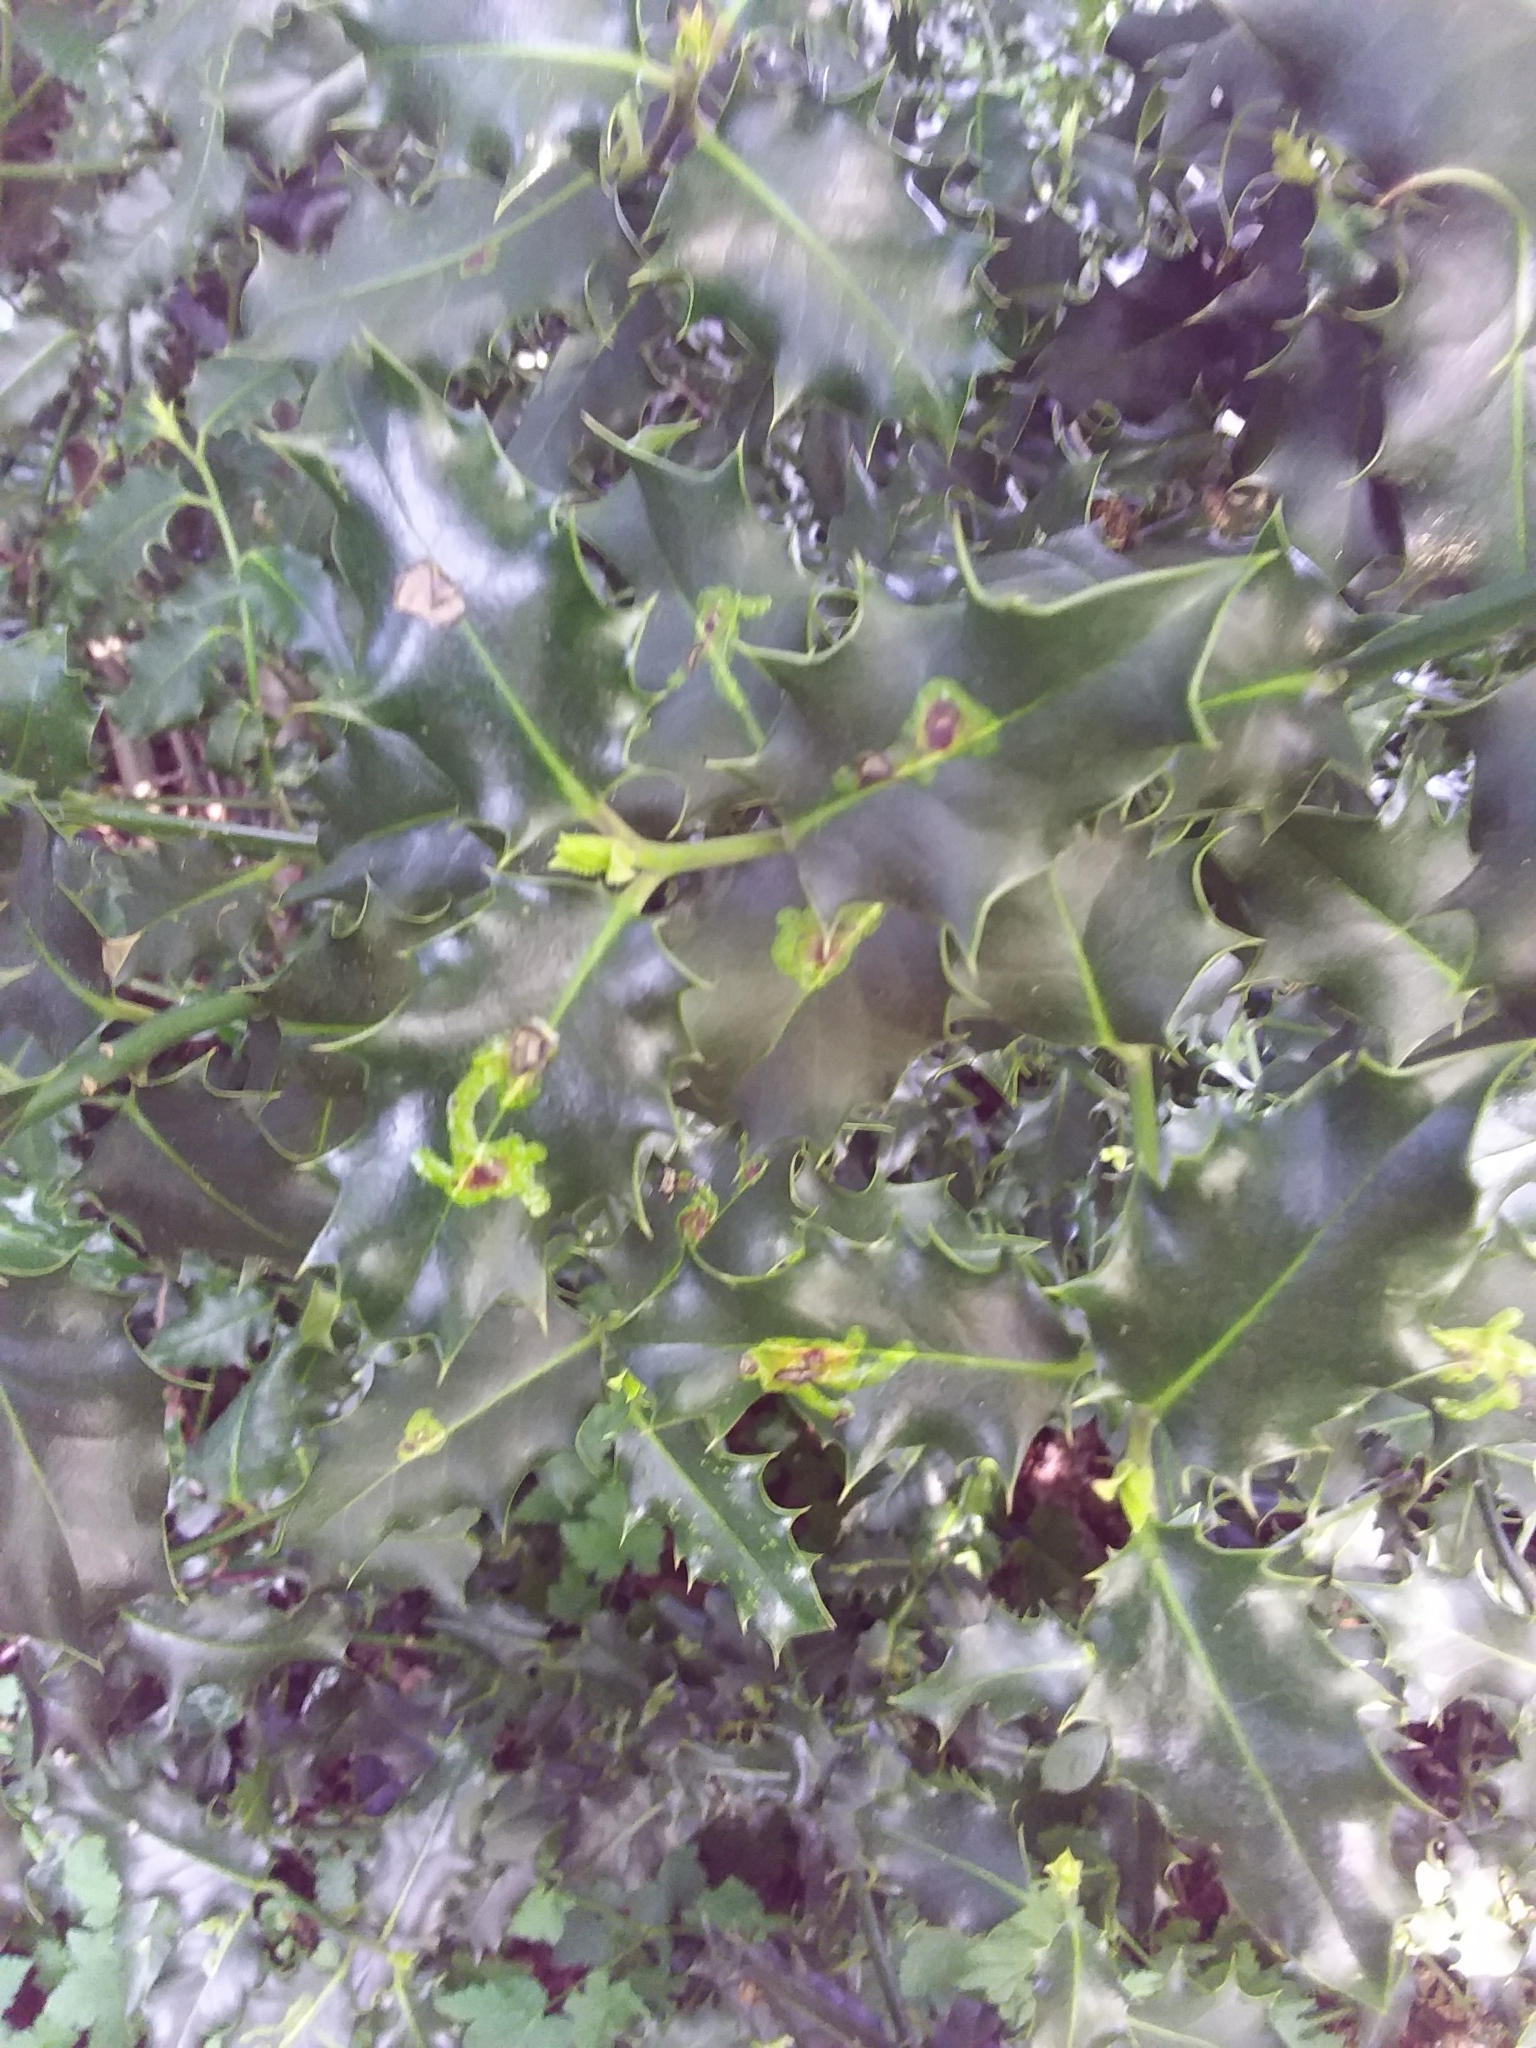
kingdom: Animalia
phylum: Arthropoda
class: Insecta
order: Diptera
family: Agromyzidae
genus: Phytomyza
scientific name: Phytomyza ilicis
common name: Holly leafminer
